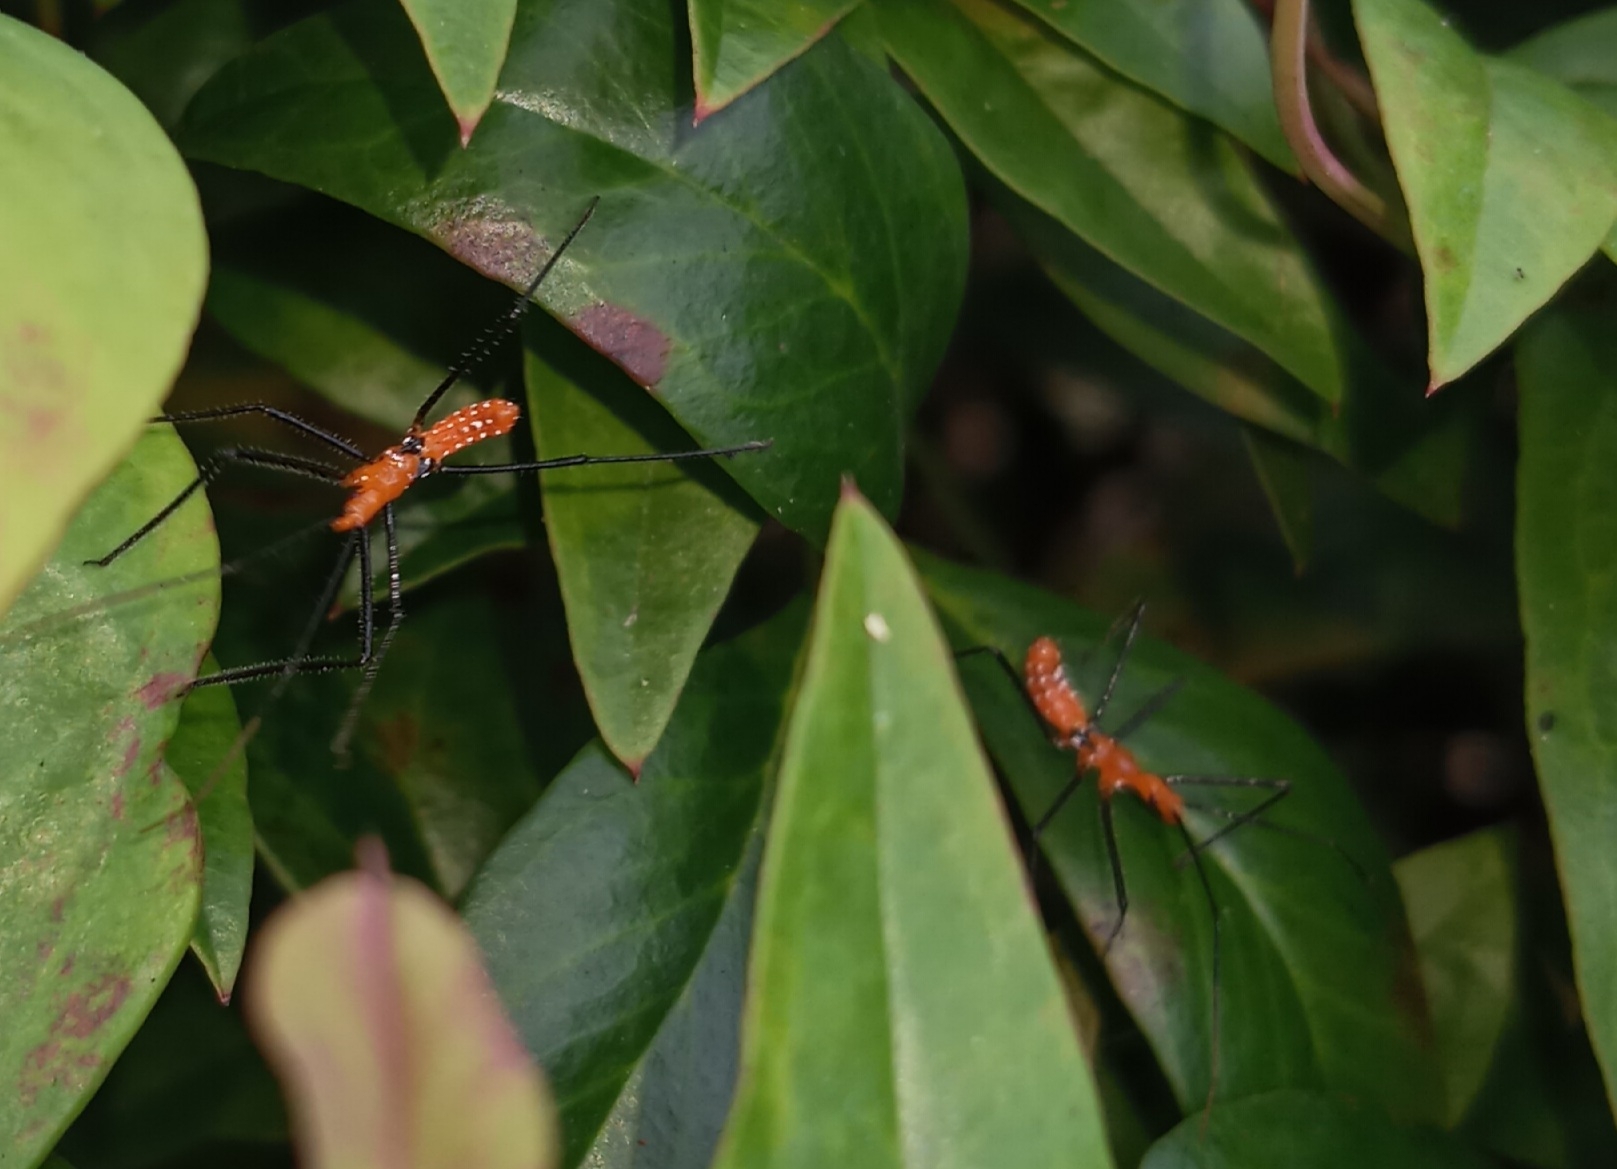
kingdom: Animalia
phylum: Arthropoda
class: Insecta
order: Hemiptera
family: Reduviidae
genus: Zelus
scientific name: Zelus longipes
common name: Milkweed assassin bug
